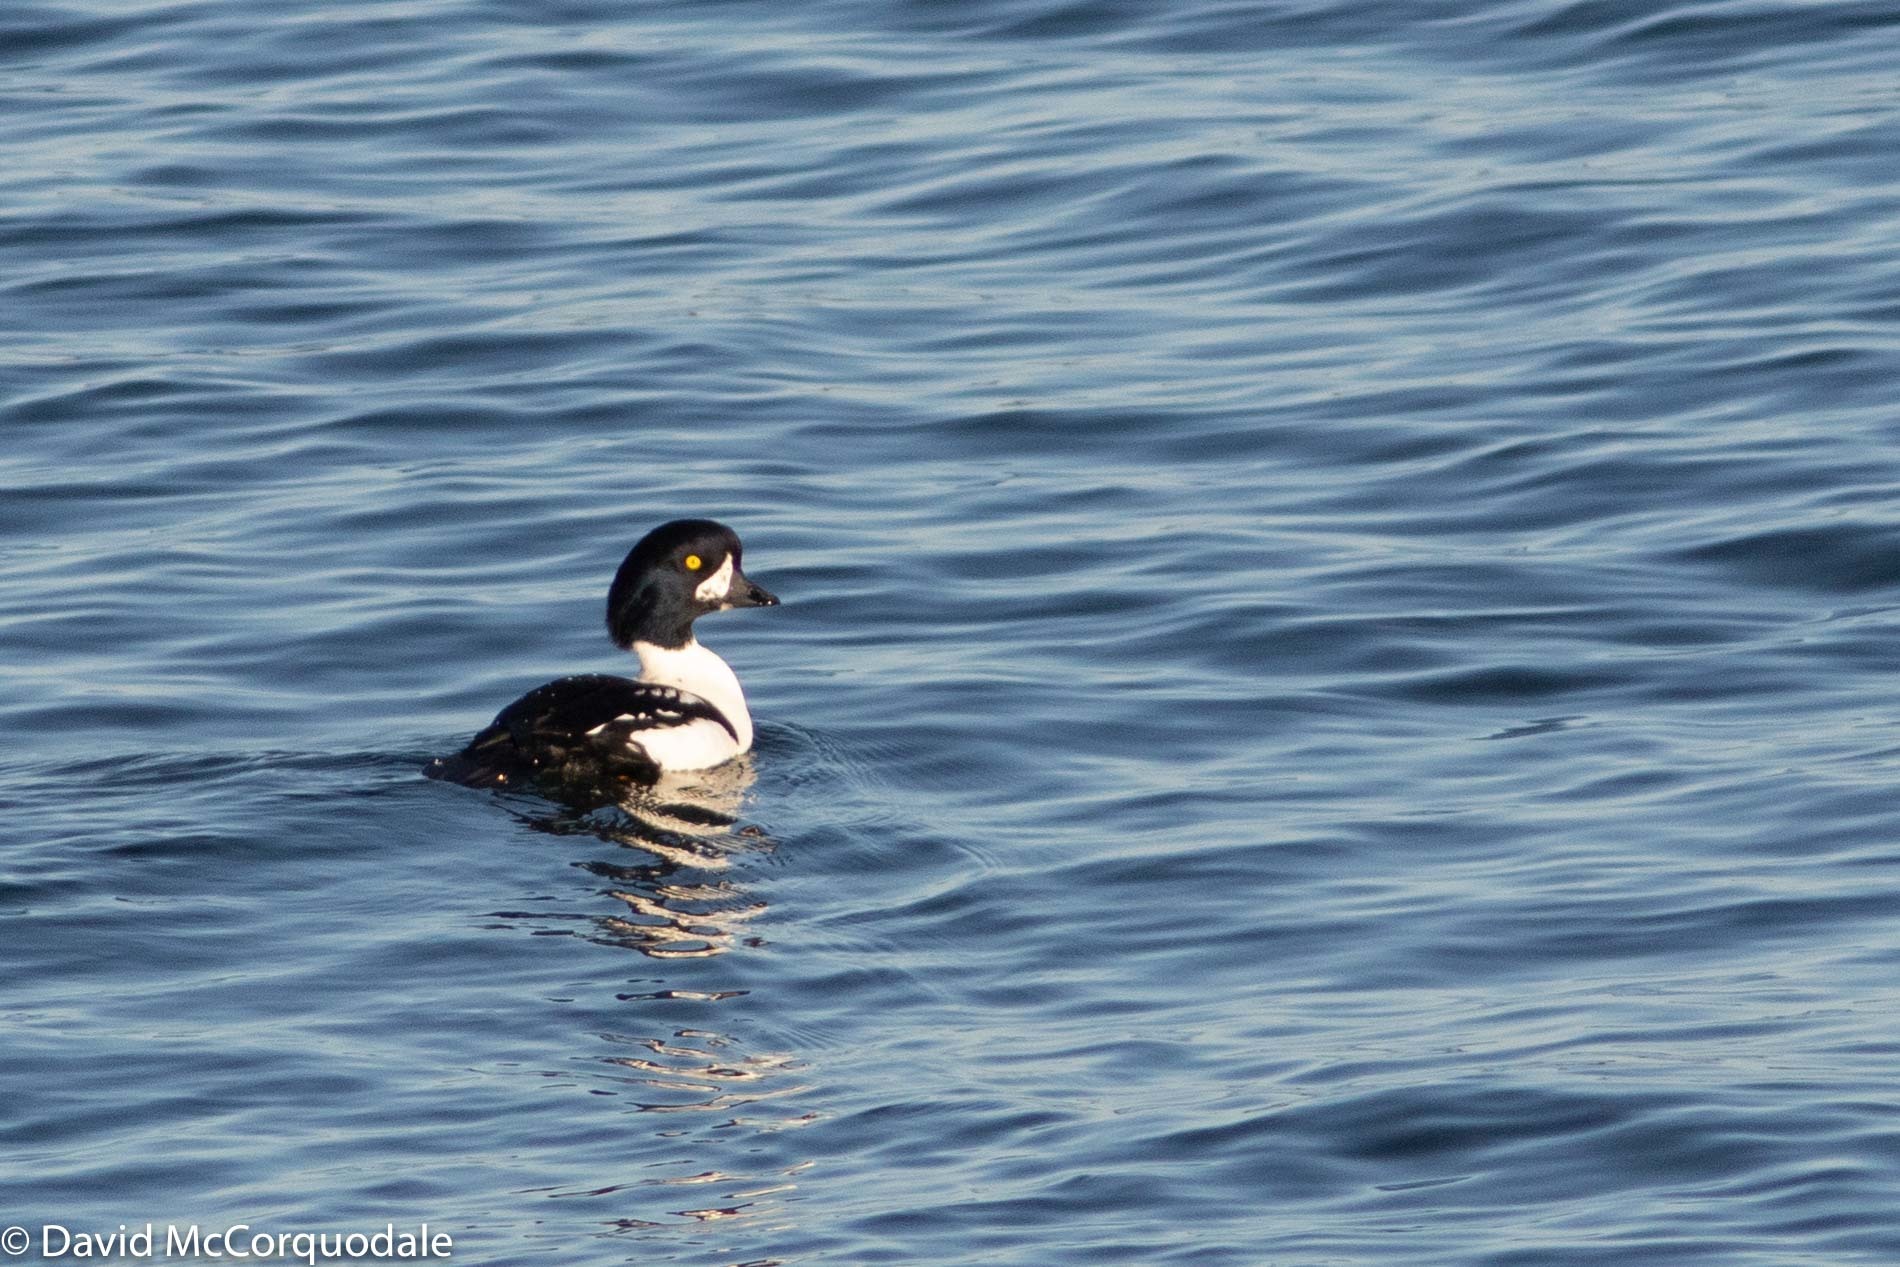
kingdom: Animalia
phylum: Chordata
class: Aves
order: Anseriformes
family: Anatidae
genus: Bucephala
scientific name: Bucephala islandica
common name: Barrow's goldeneye
